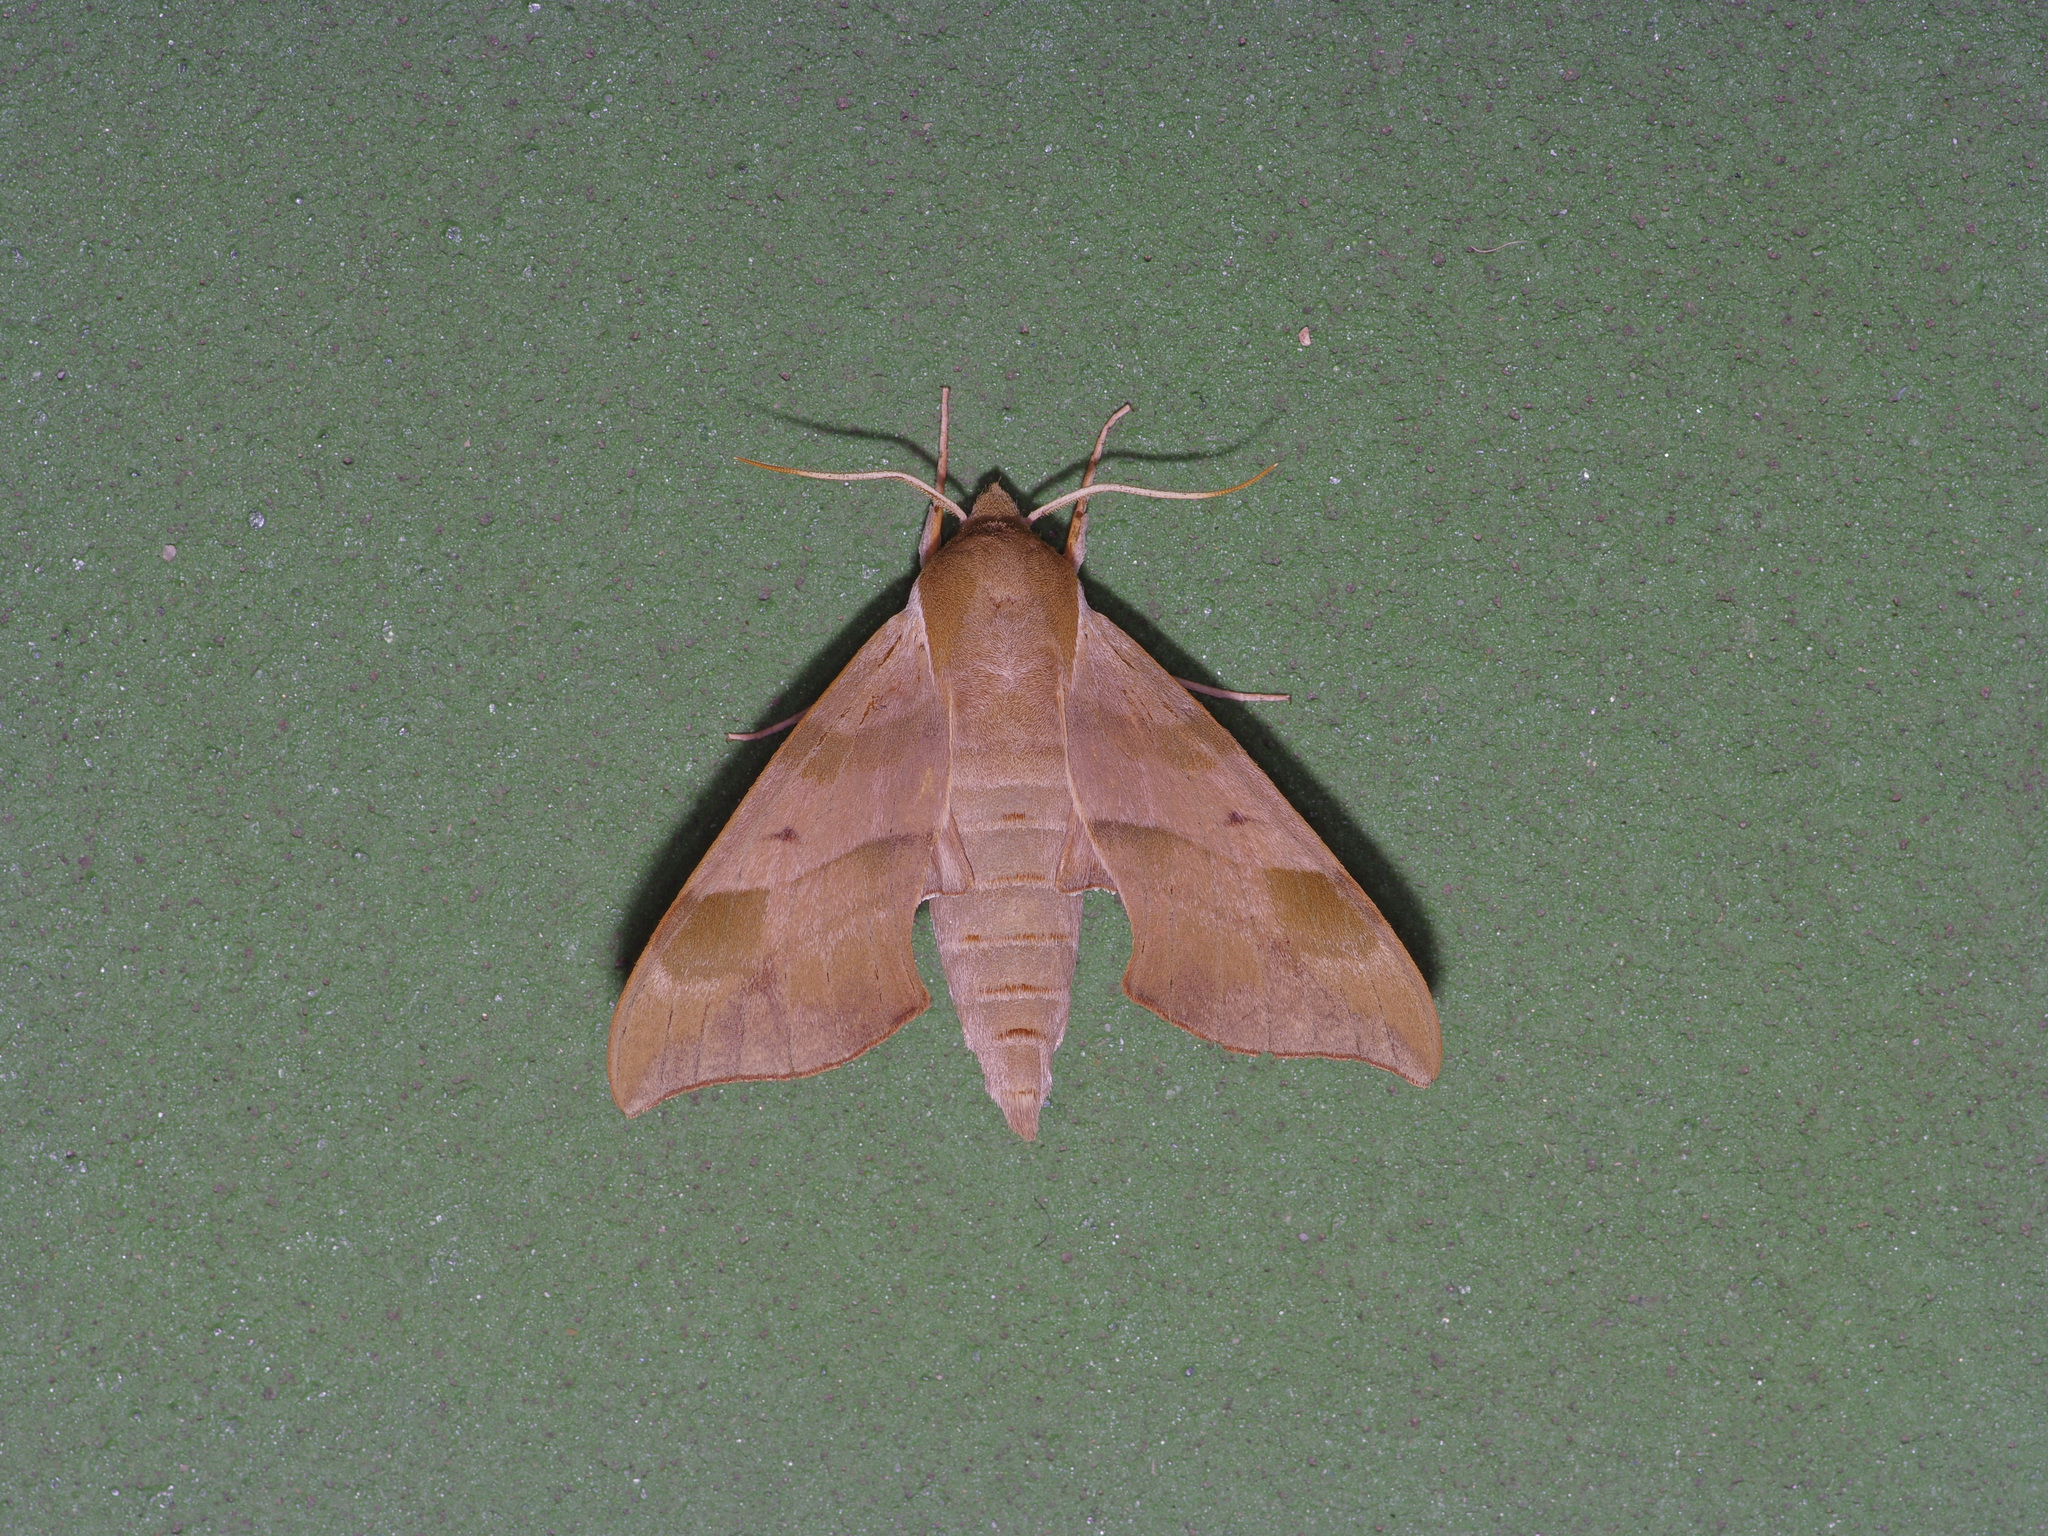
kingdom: Animalia
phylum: Arthropoda
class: Insecta
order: Lepidoptera
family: Sphingidae
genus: Darapsa
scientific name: Darapsa myron
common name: Hog sphinx
